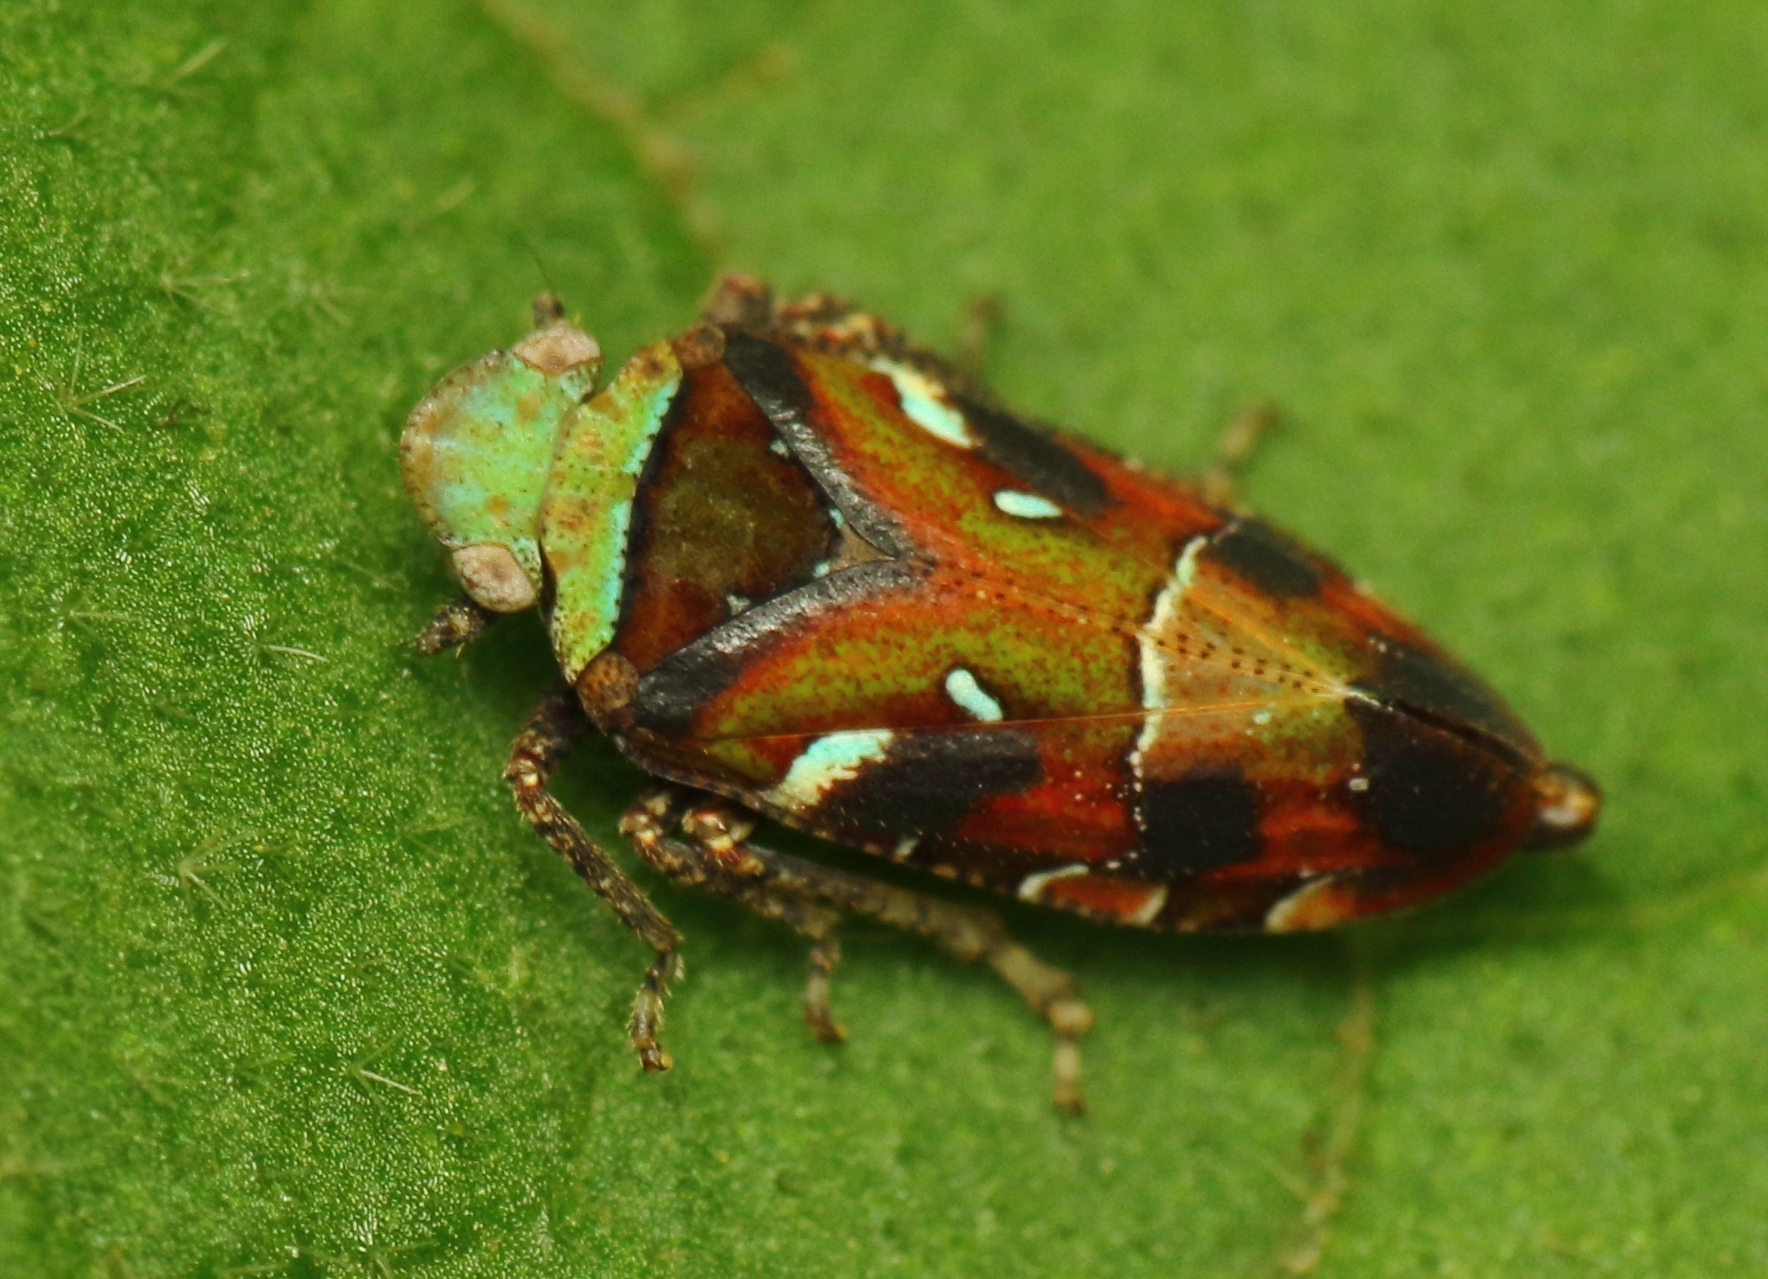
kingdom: Animalia
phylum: Arthropoda
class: Insecta
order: Hemiptera
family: Tettigometridae
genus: Nototettigometra
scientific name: Nototettigometra patruelis
